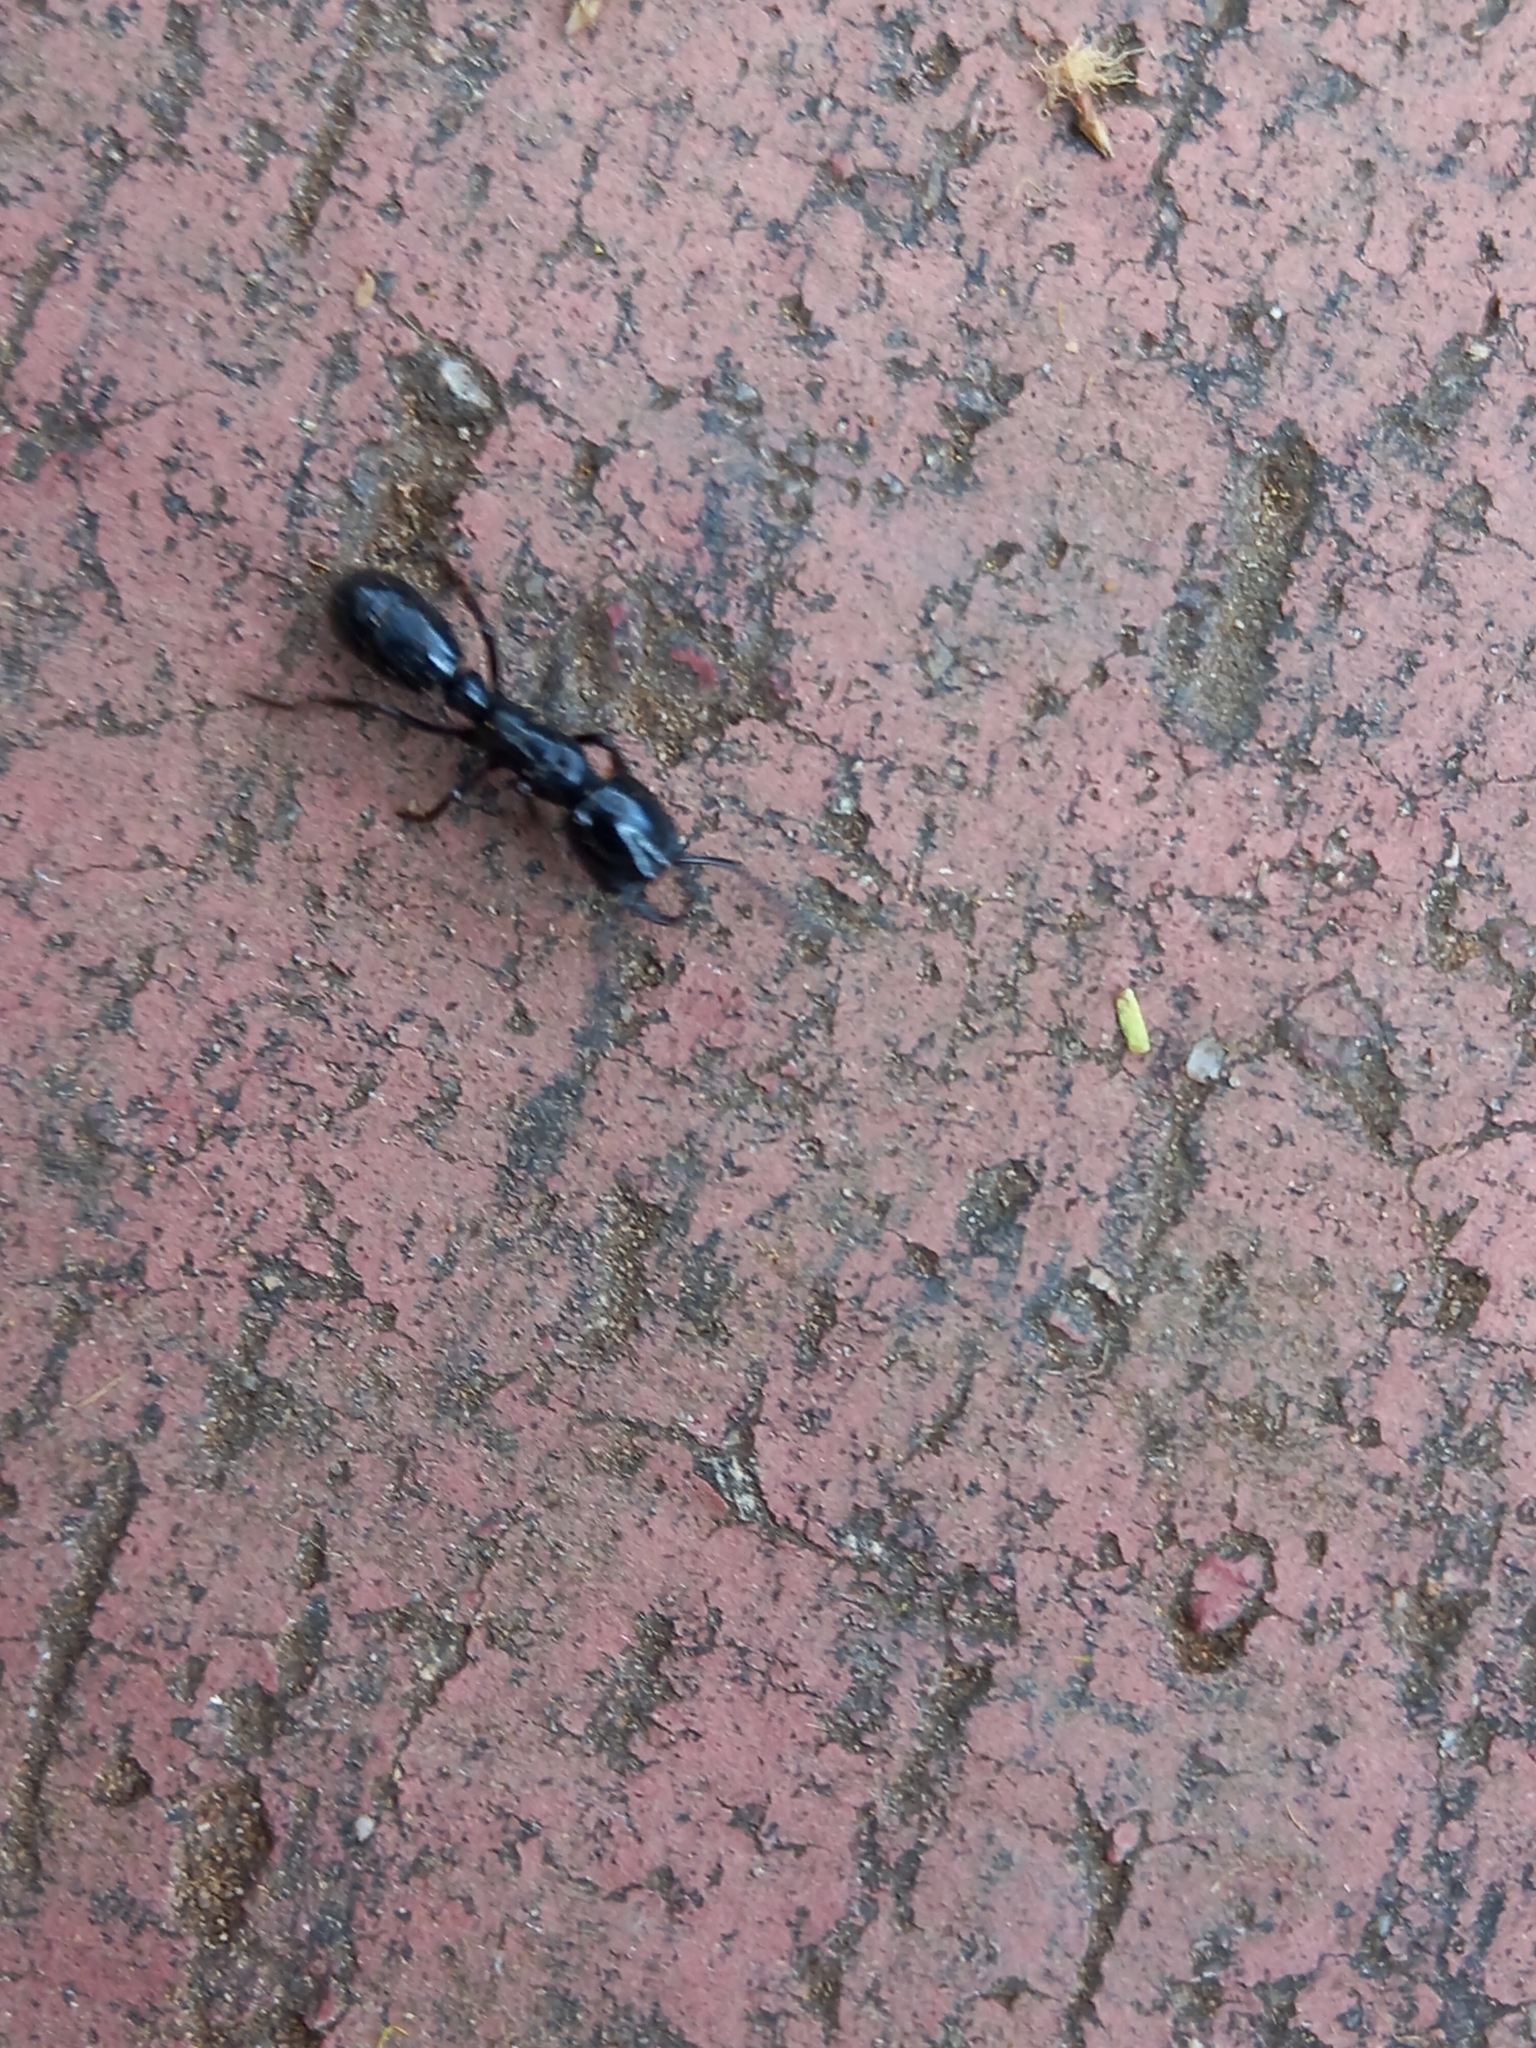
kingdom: Animalia
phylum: Arthropoda
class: Insecta
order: Hymenoptera
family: Formicidae
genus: Plectroctena
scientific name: Plectroctena mandibularis
